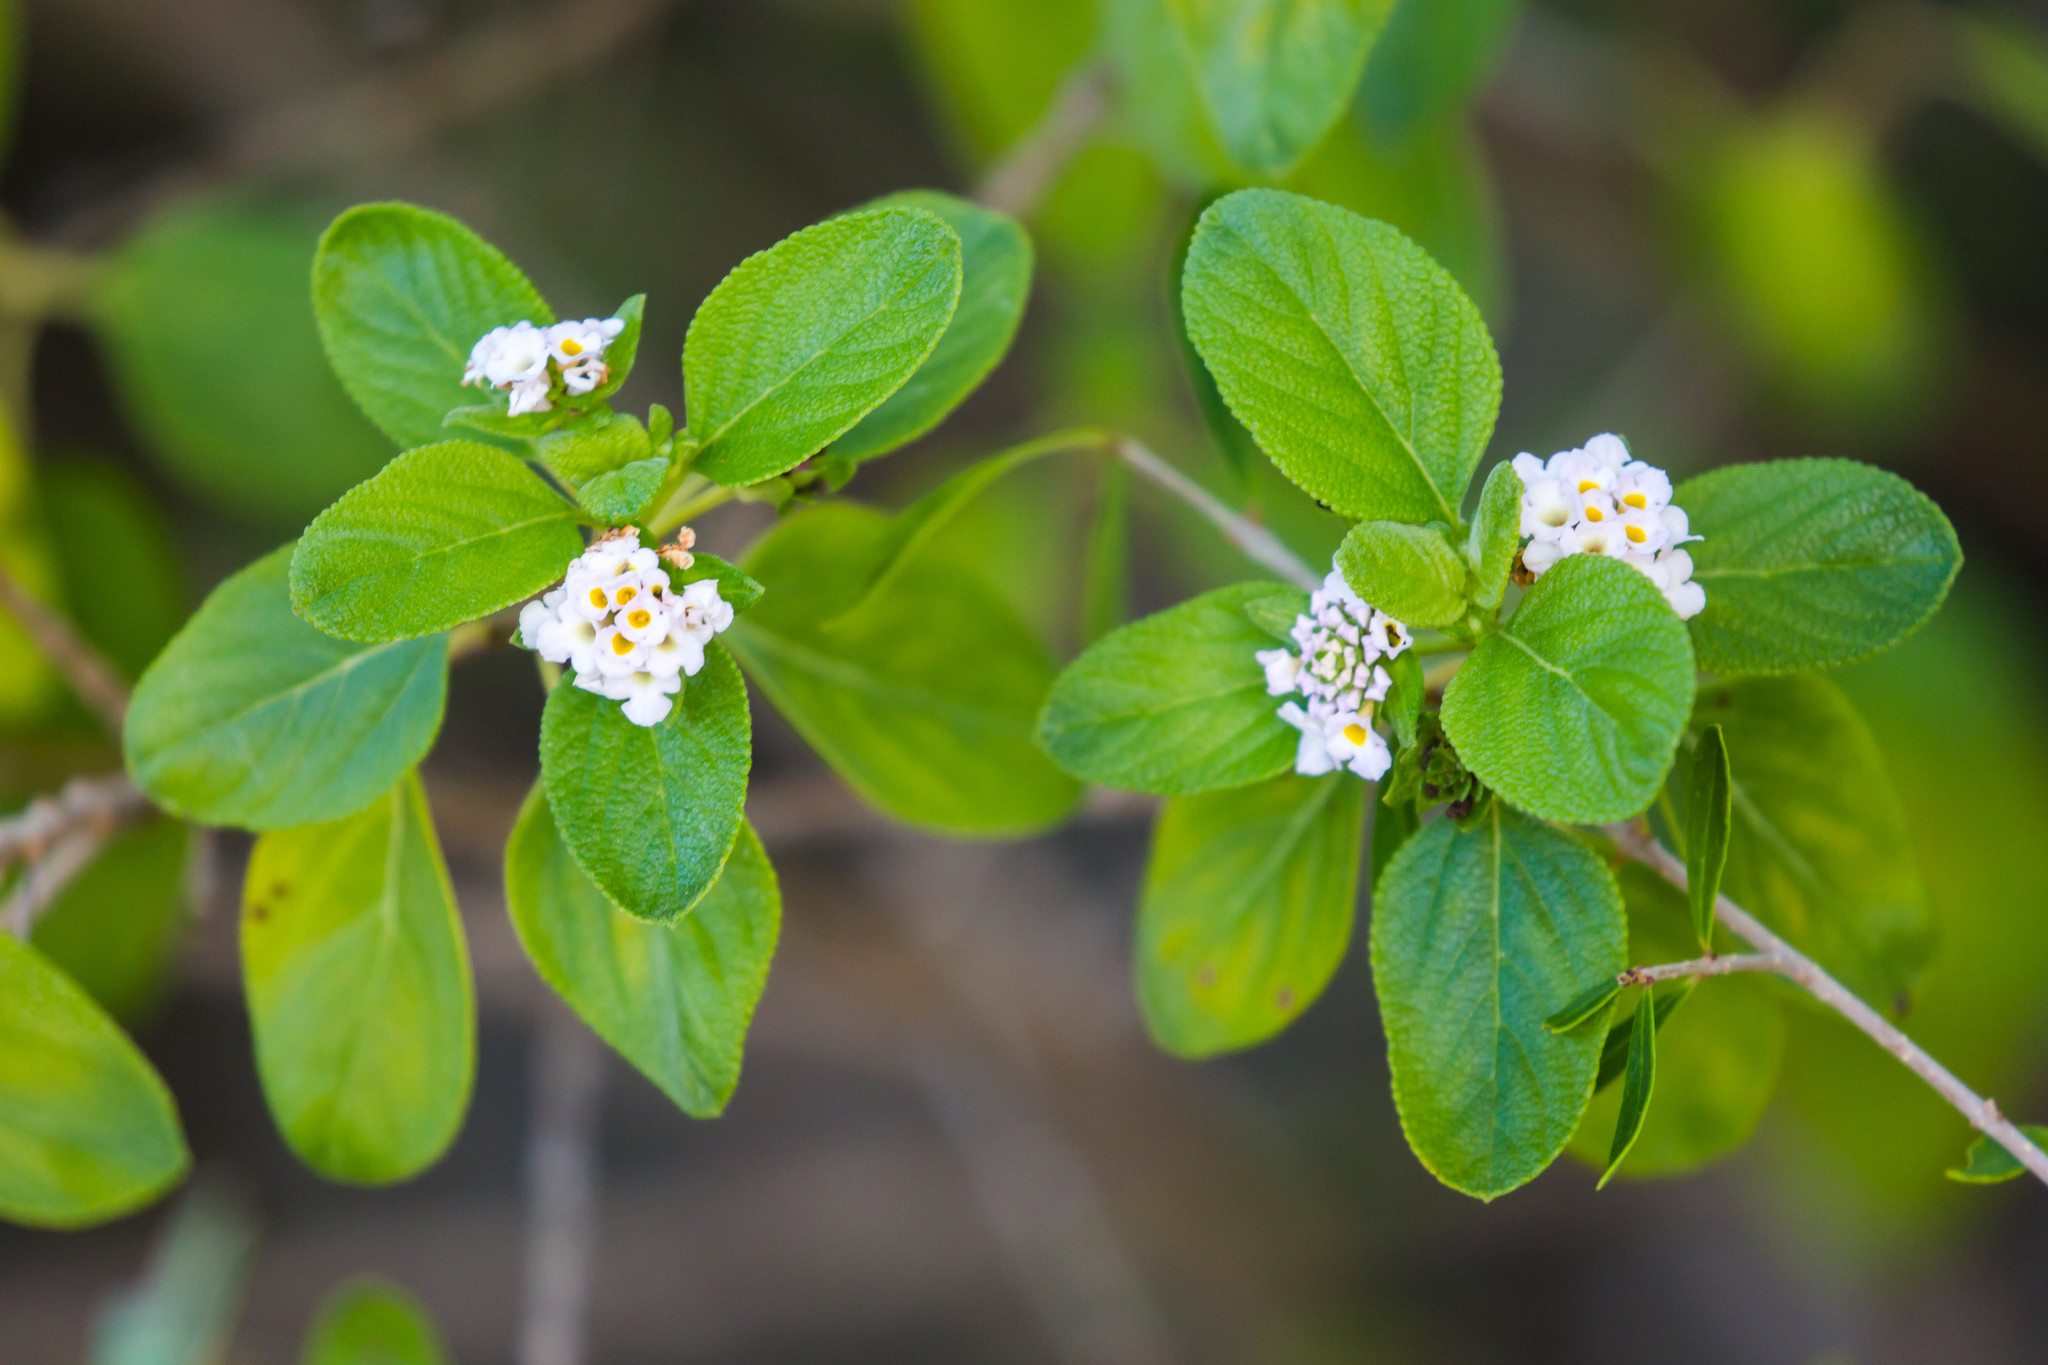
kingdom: Plantae
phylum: Tracheophyta
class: Magnoliopsida
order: Lamiales
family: Verbenaceae
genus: Lantana
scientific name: Lantana involucrata
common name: Black sage
